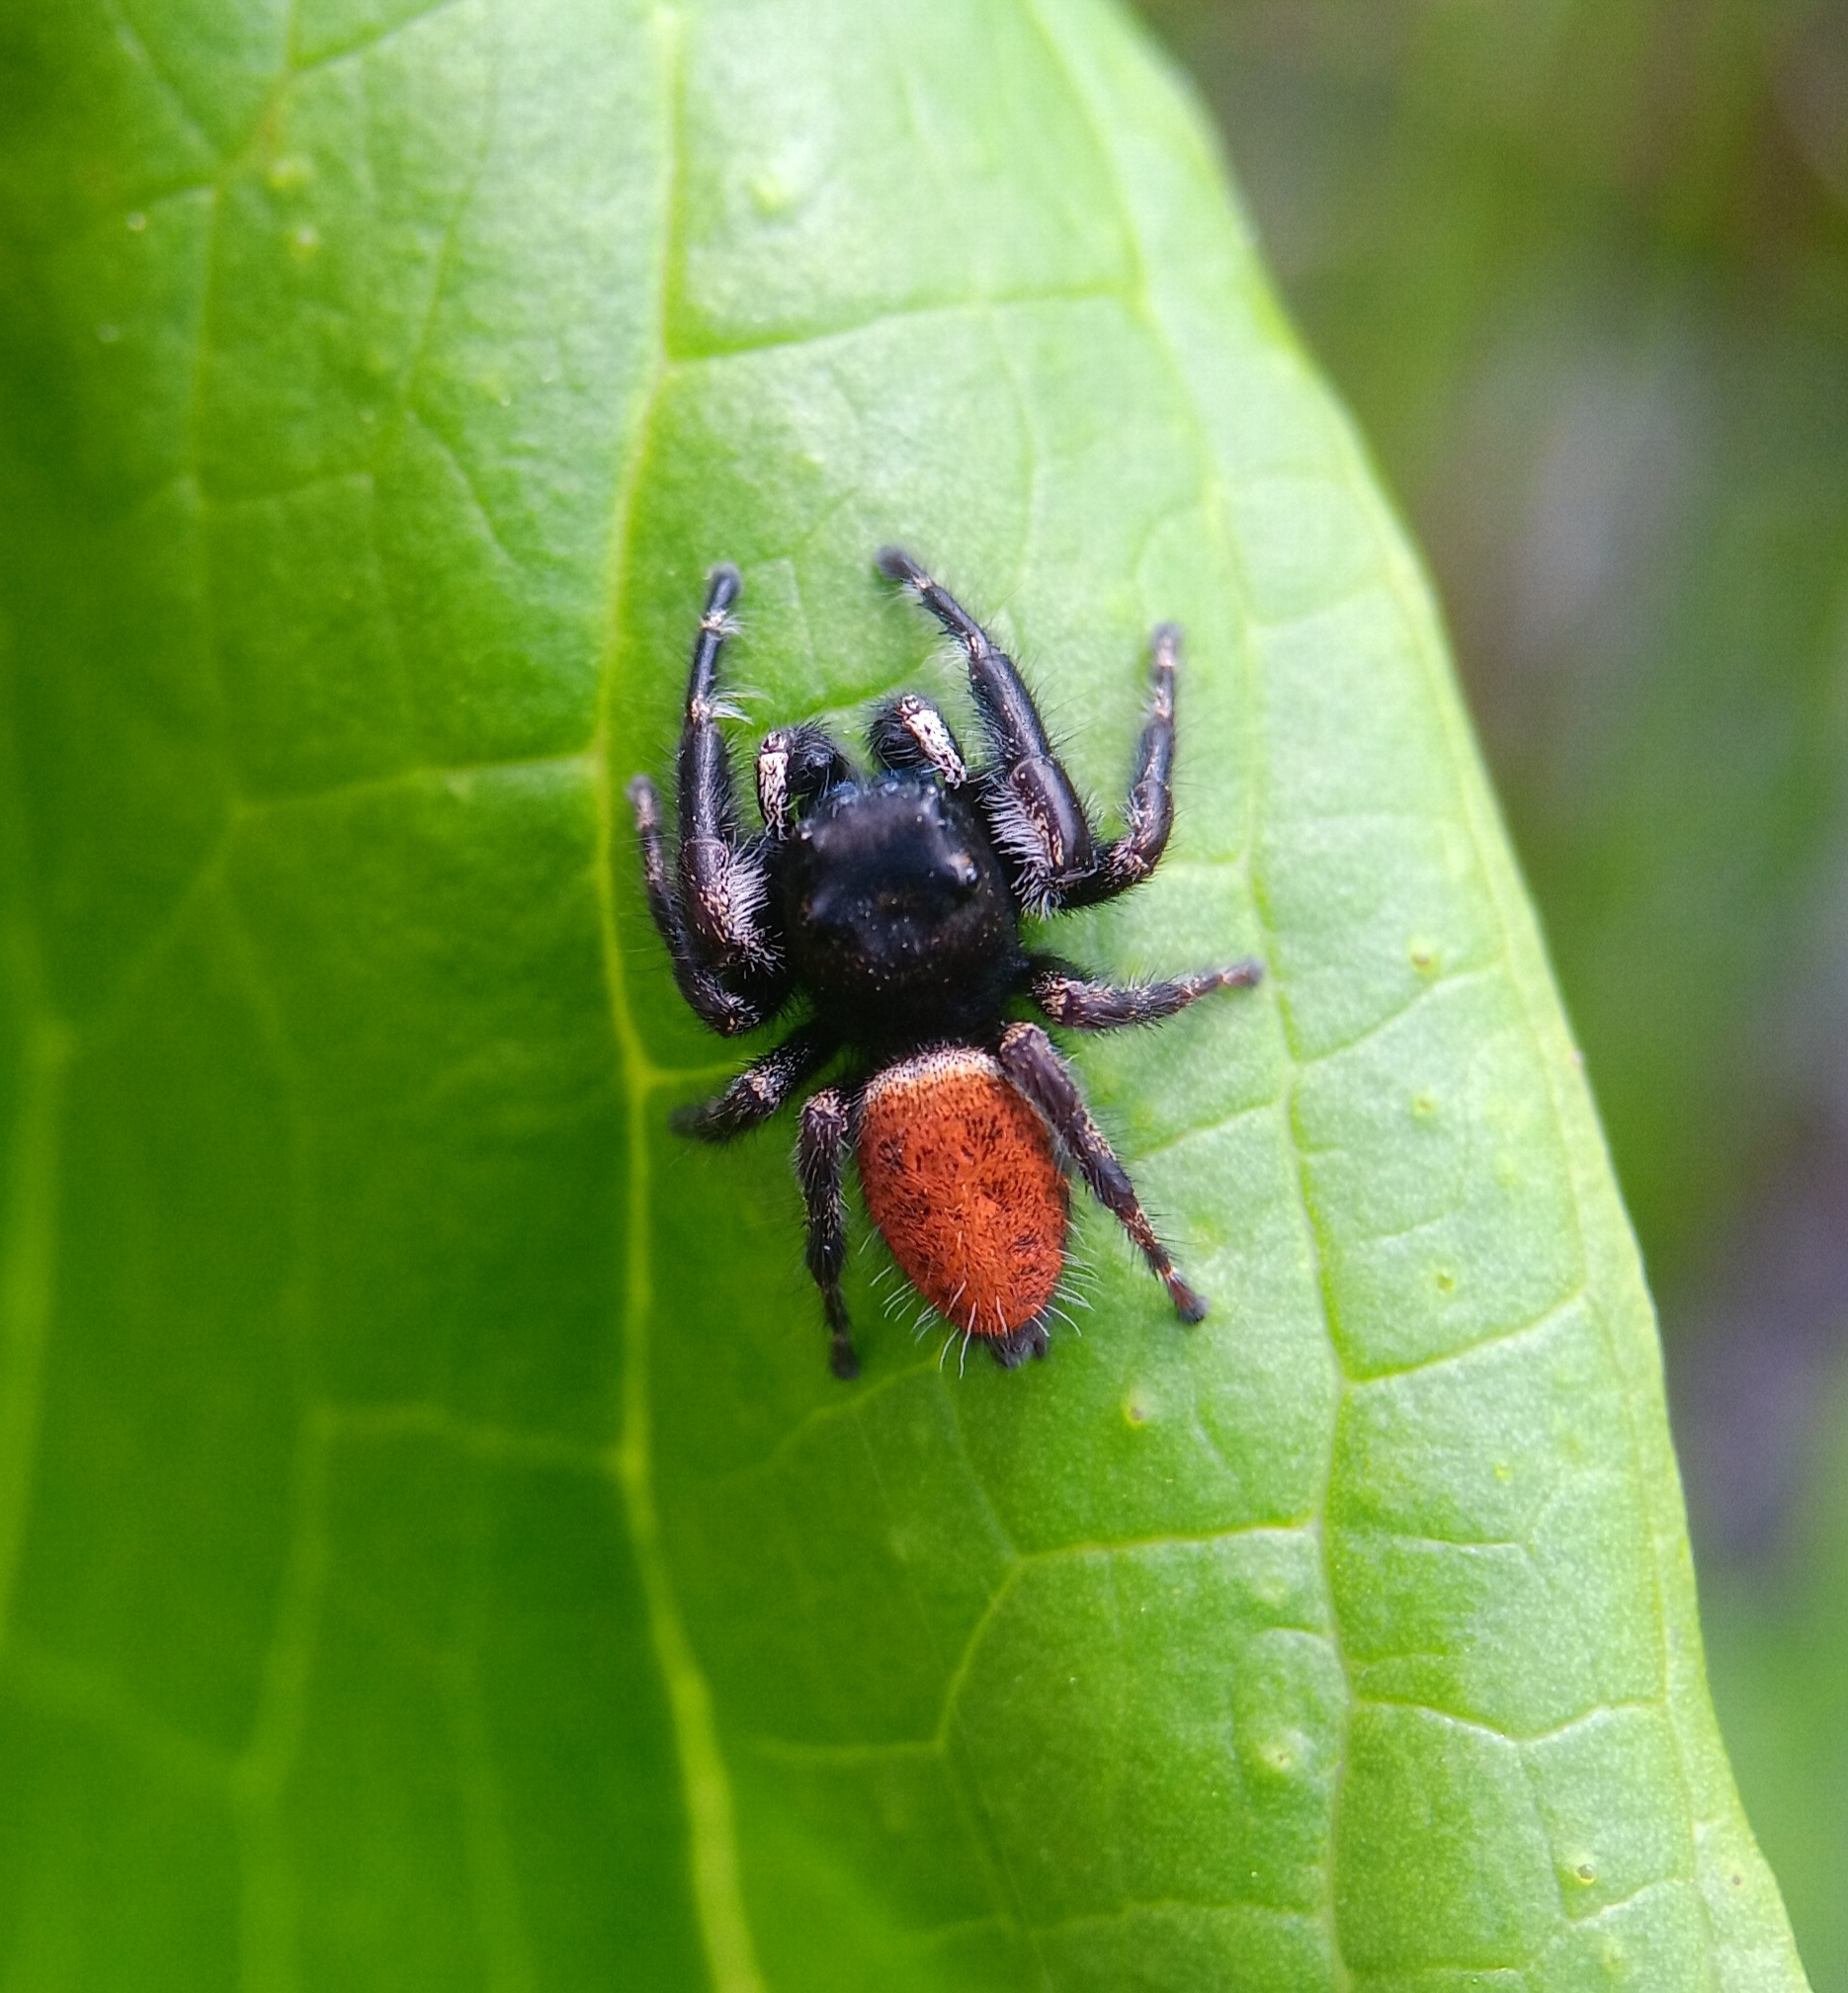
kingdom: Animalia
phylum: Arthropoda
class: Arachnida
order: Araneae
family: Salticidae
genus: Phidippus
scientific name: Phidippus princeps
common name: Grayish jumping spider
